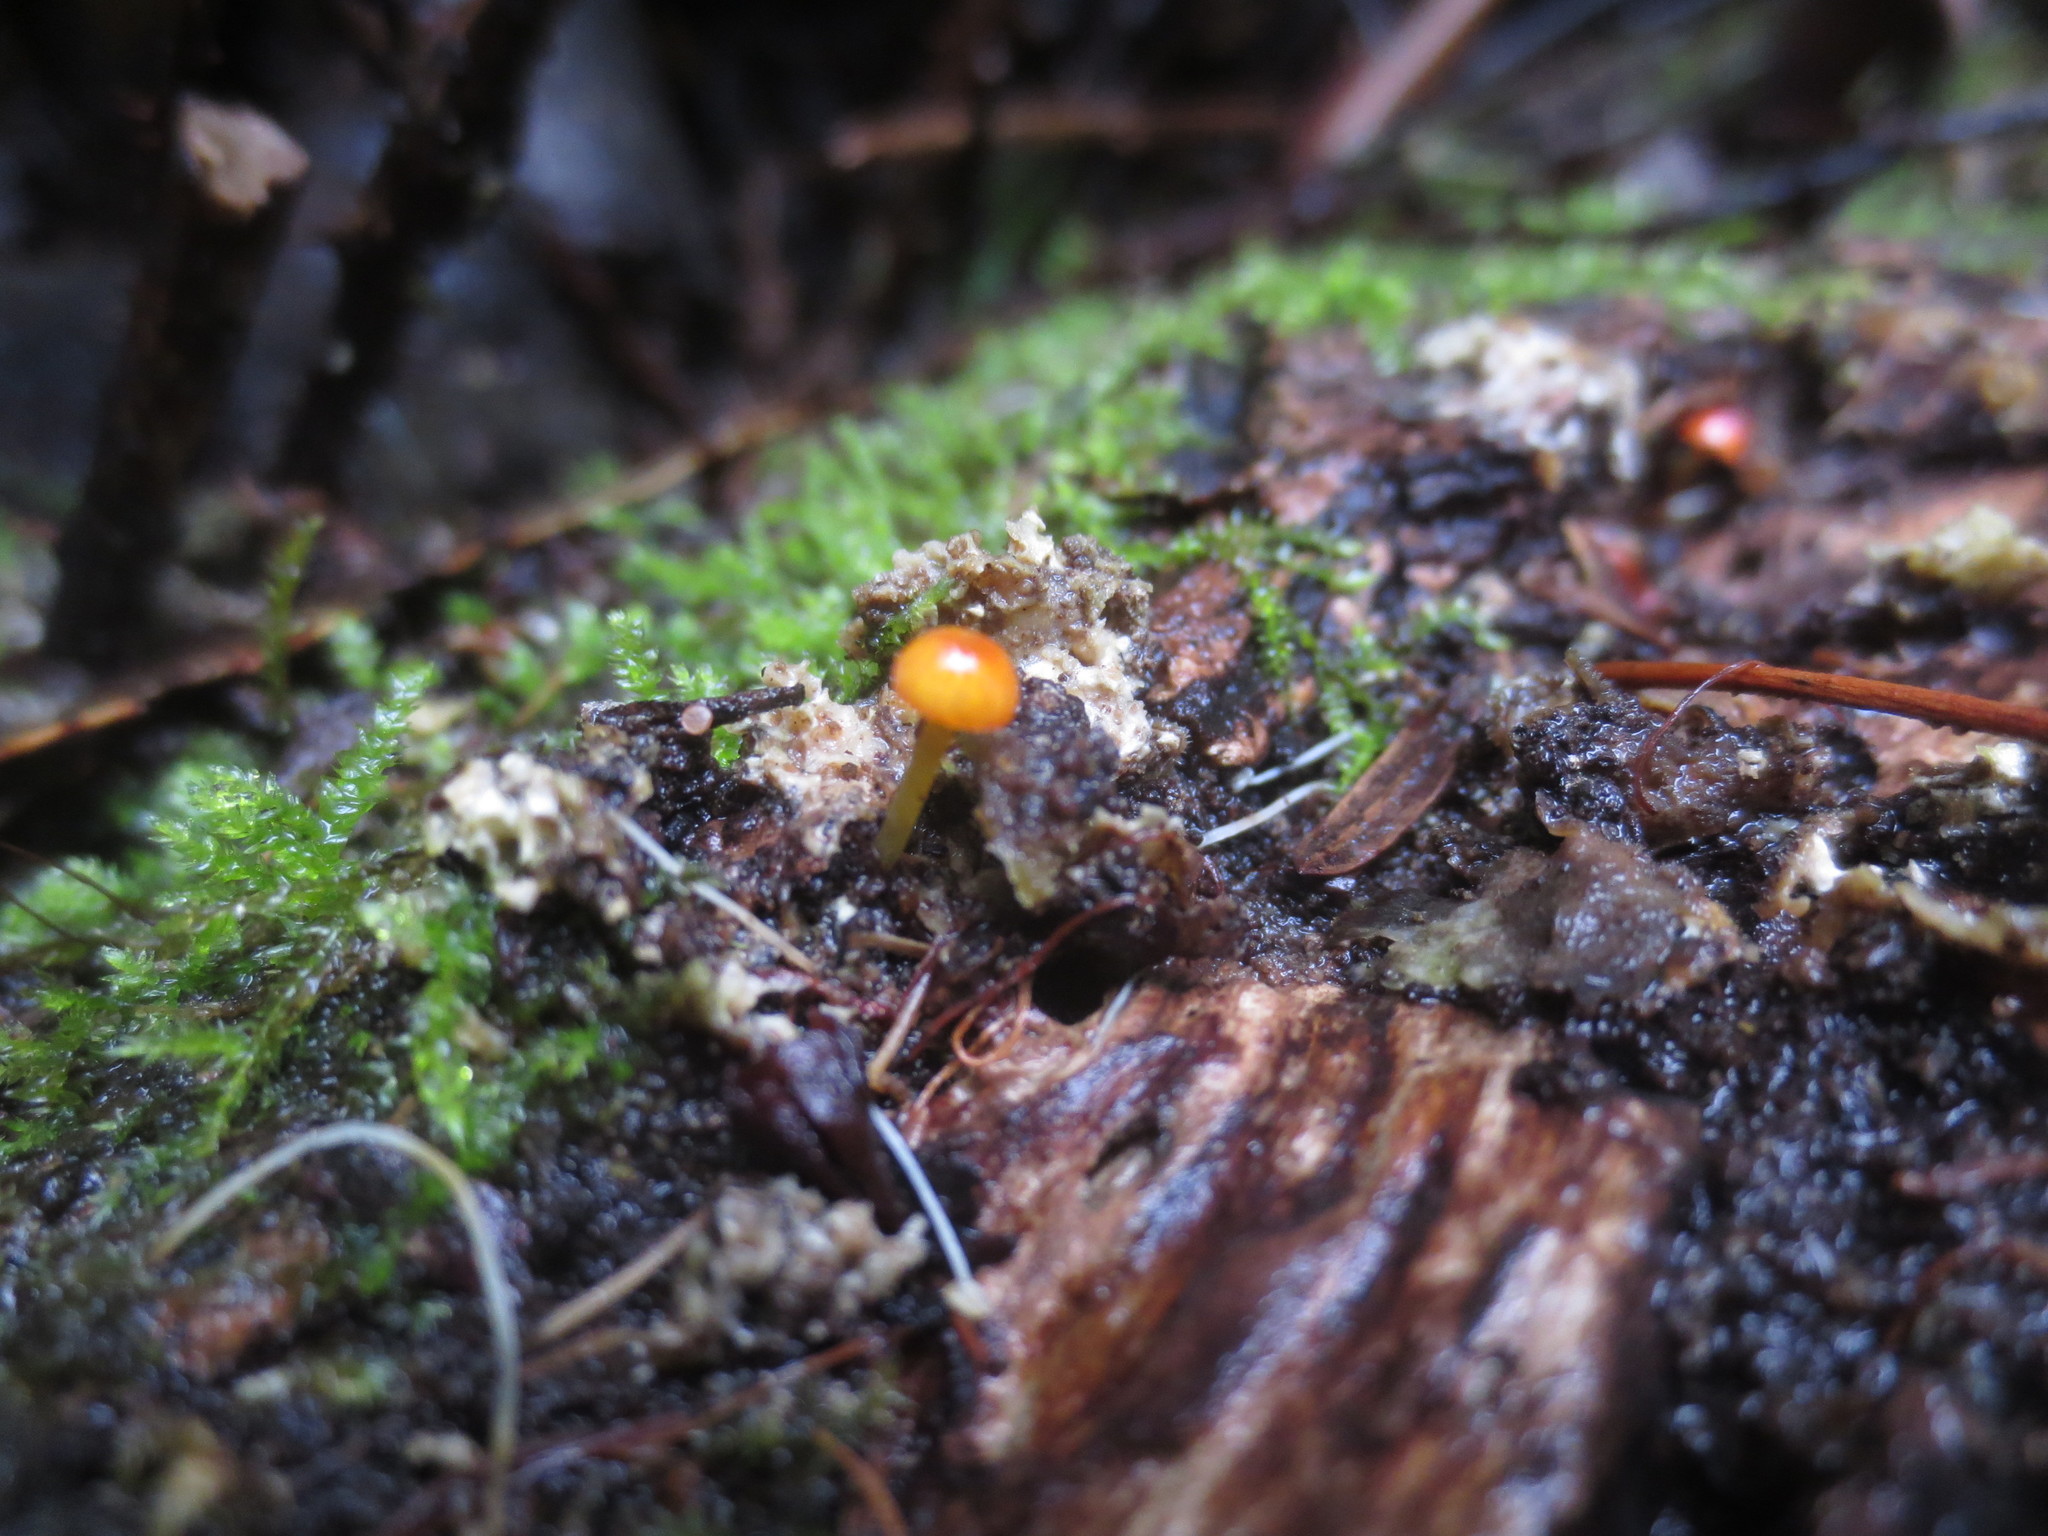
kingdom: Fungi
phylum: Basidiomycota
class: Agaricomycetes
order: Agaricales
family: Mycenaceae
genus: Mycena
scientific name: Mycena acicula
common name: Orange bonnet
